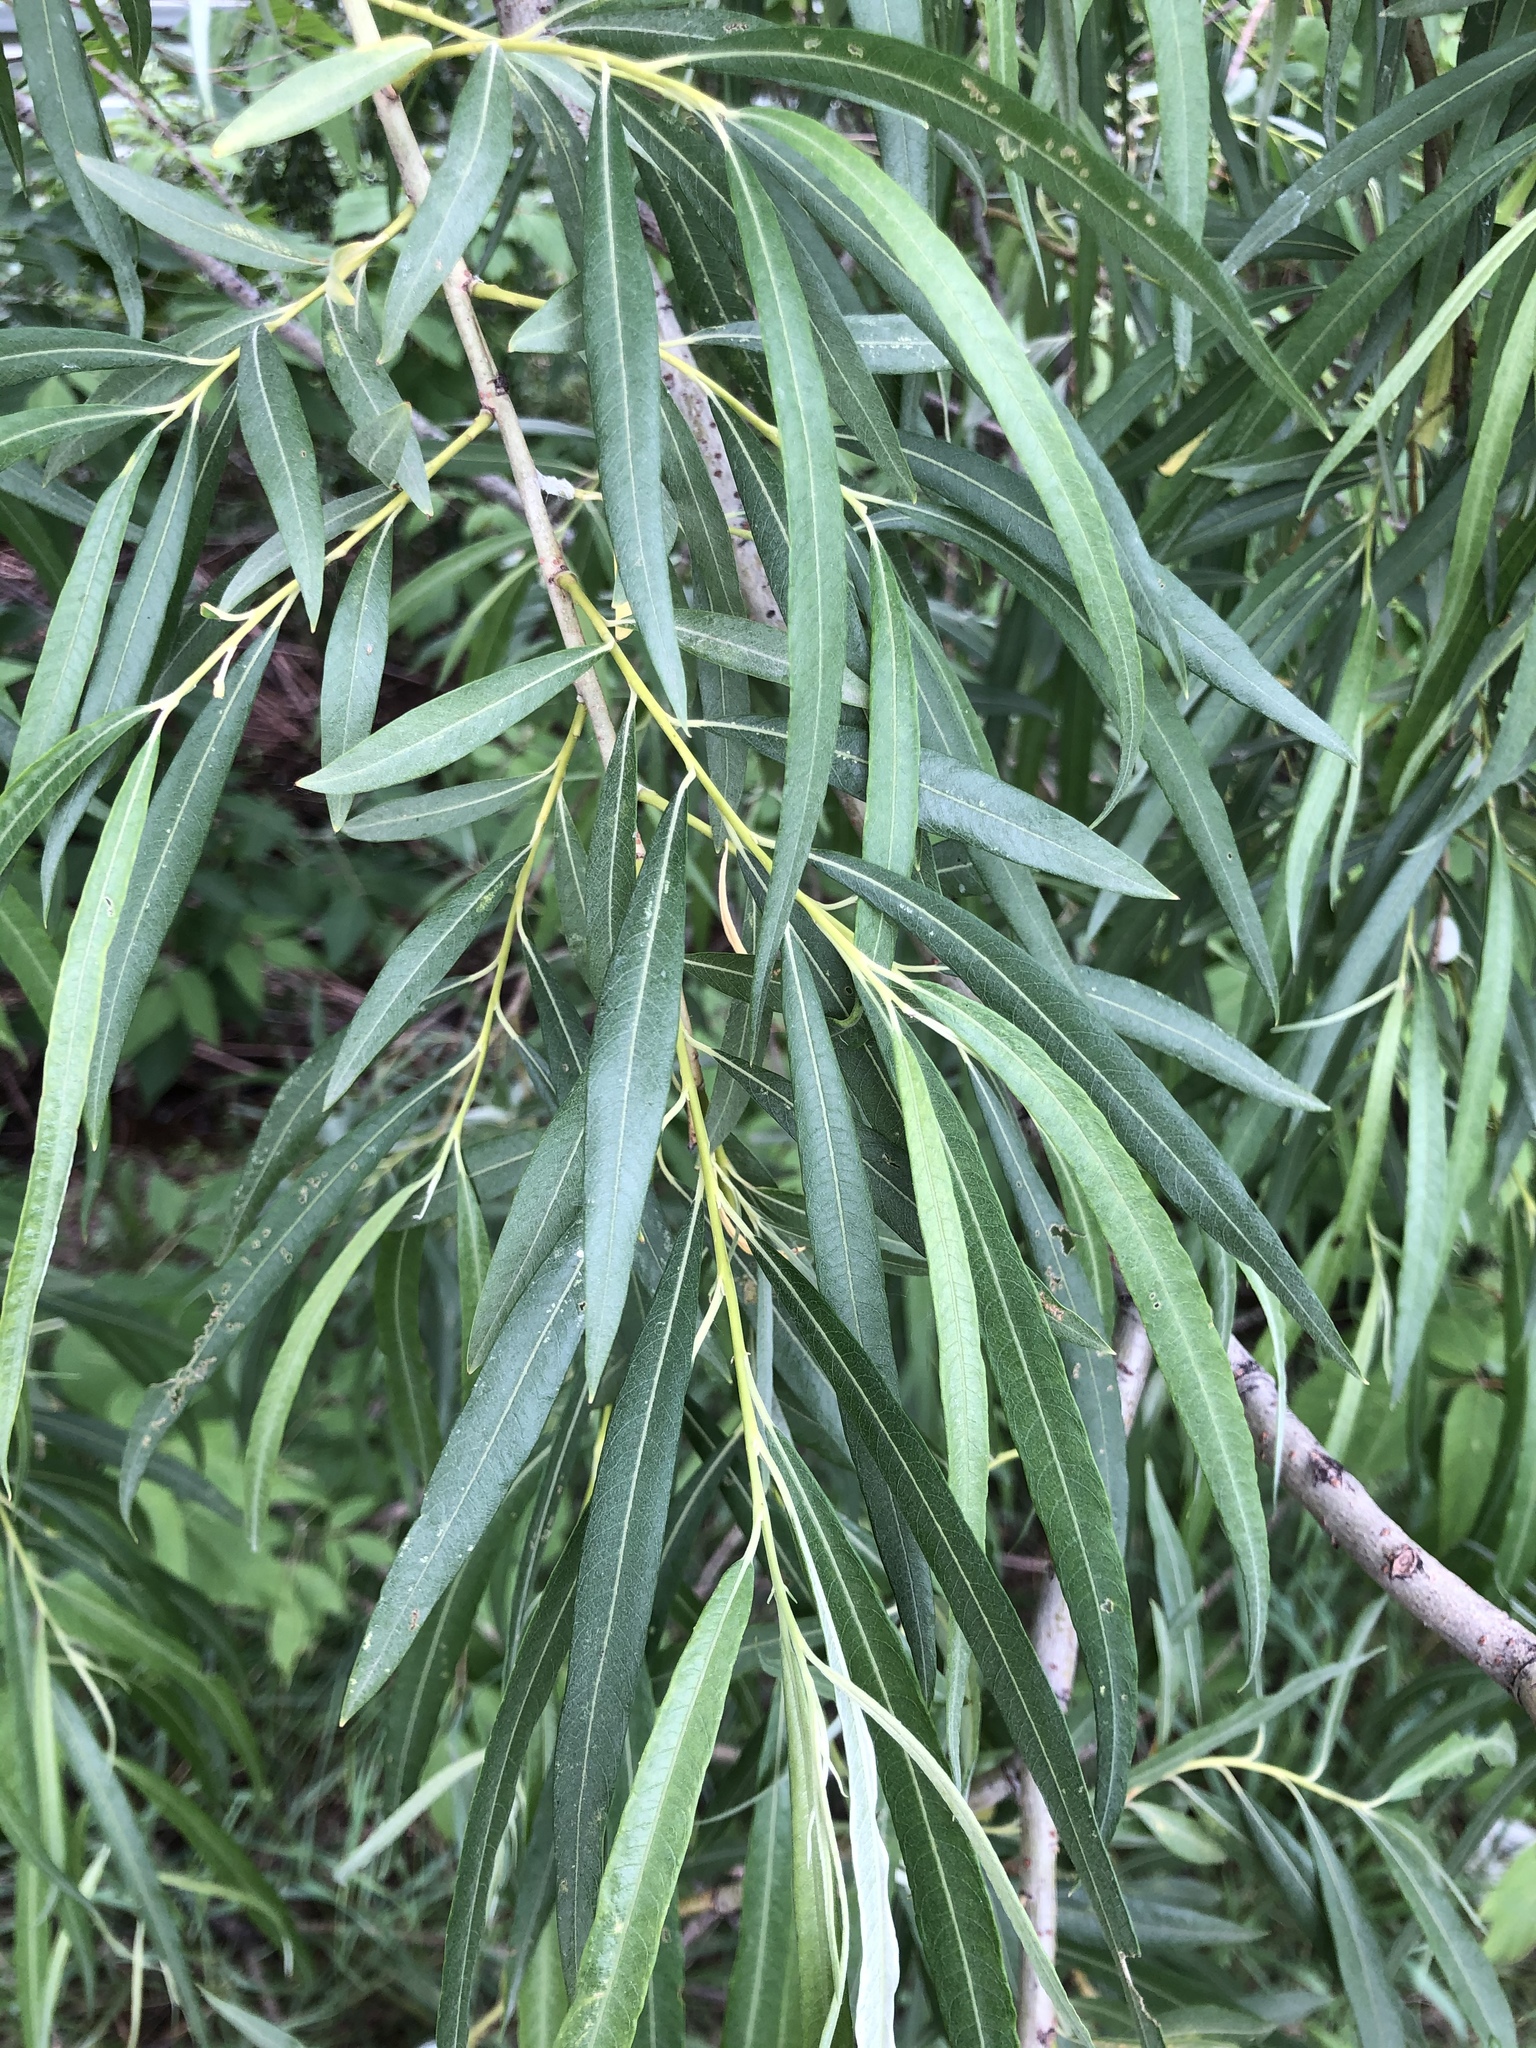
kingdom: Plantae
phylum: Tracheophyta
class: Magnoliopsida
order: Malpighiales
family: Salicaceae
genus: Salix
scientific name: Salix viminalis
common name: Osier
